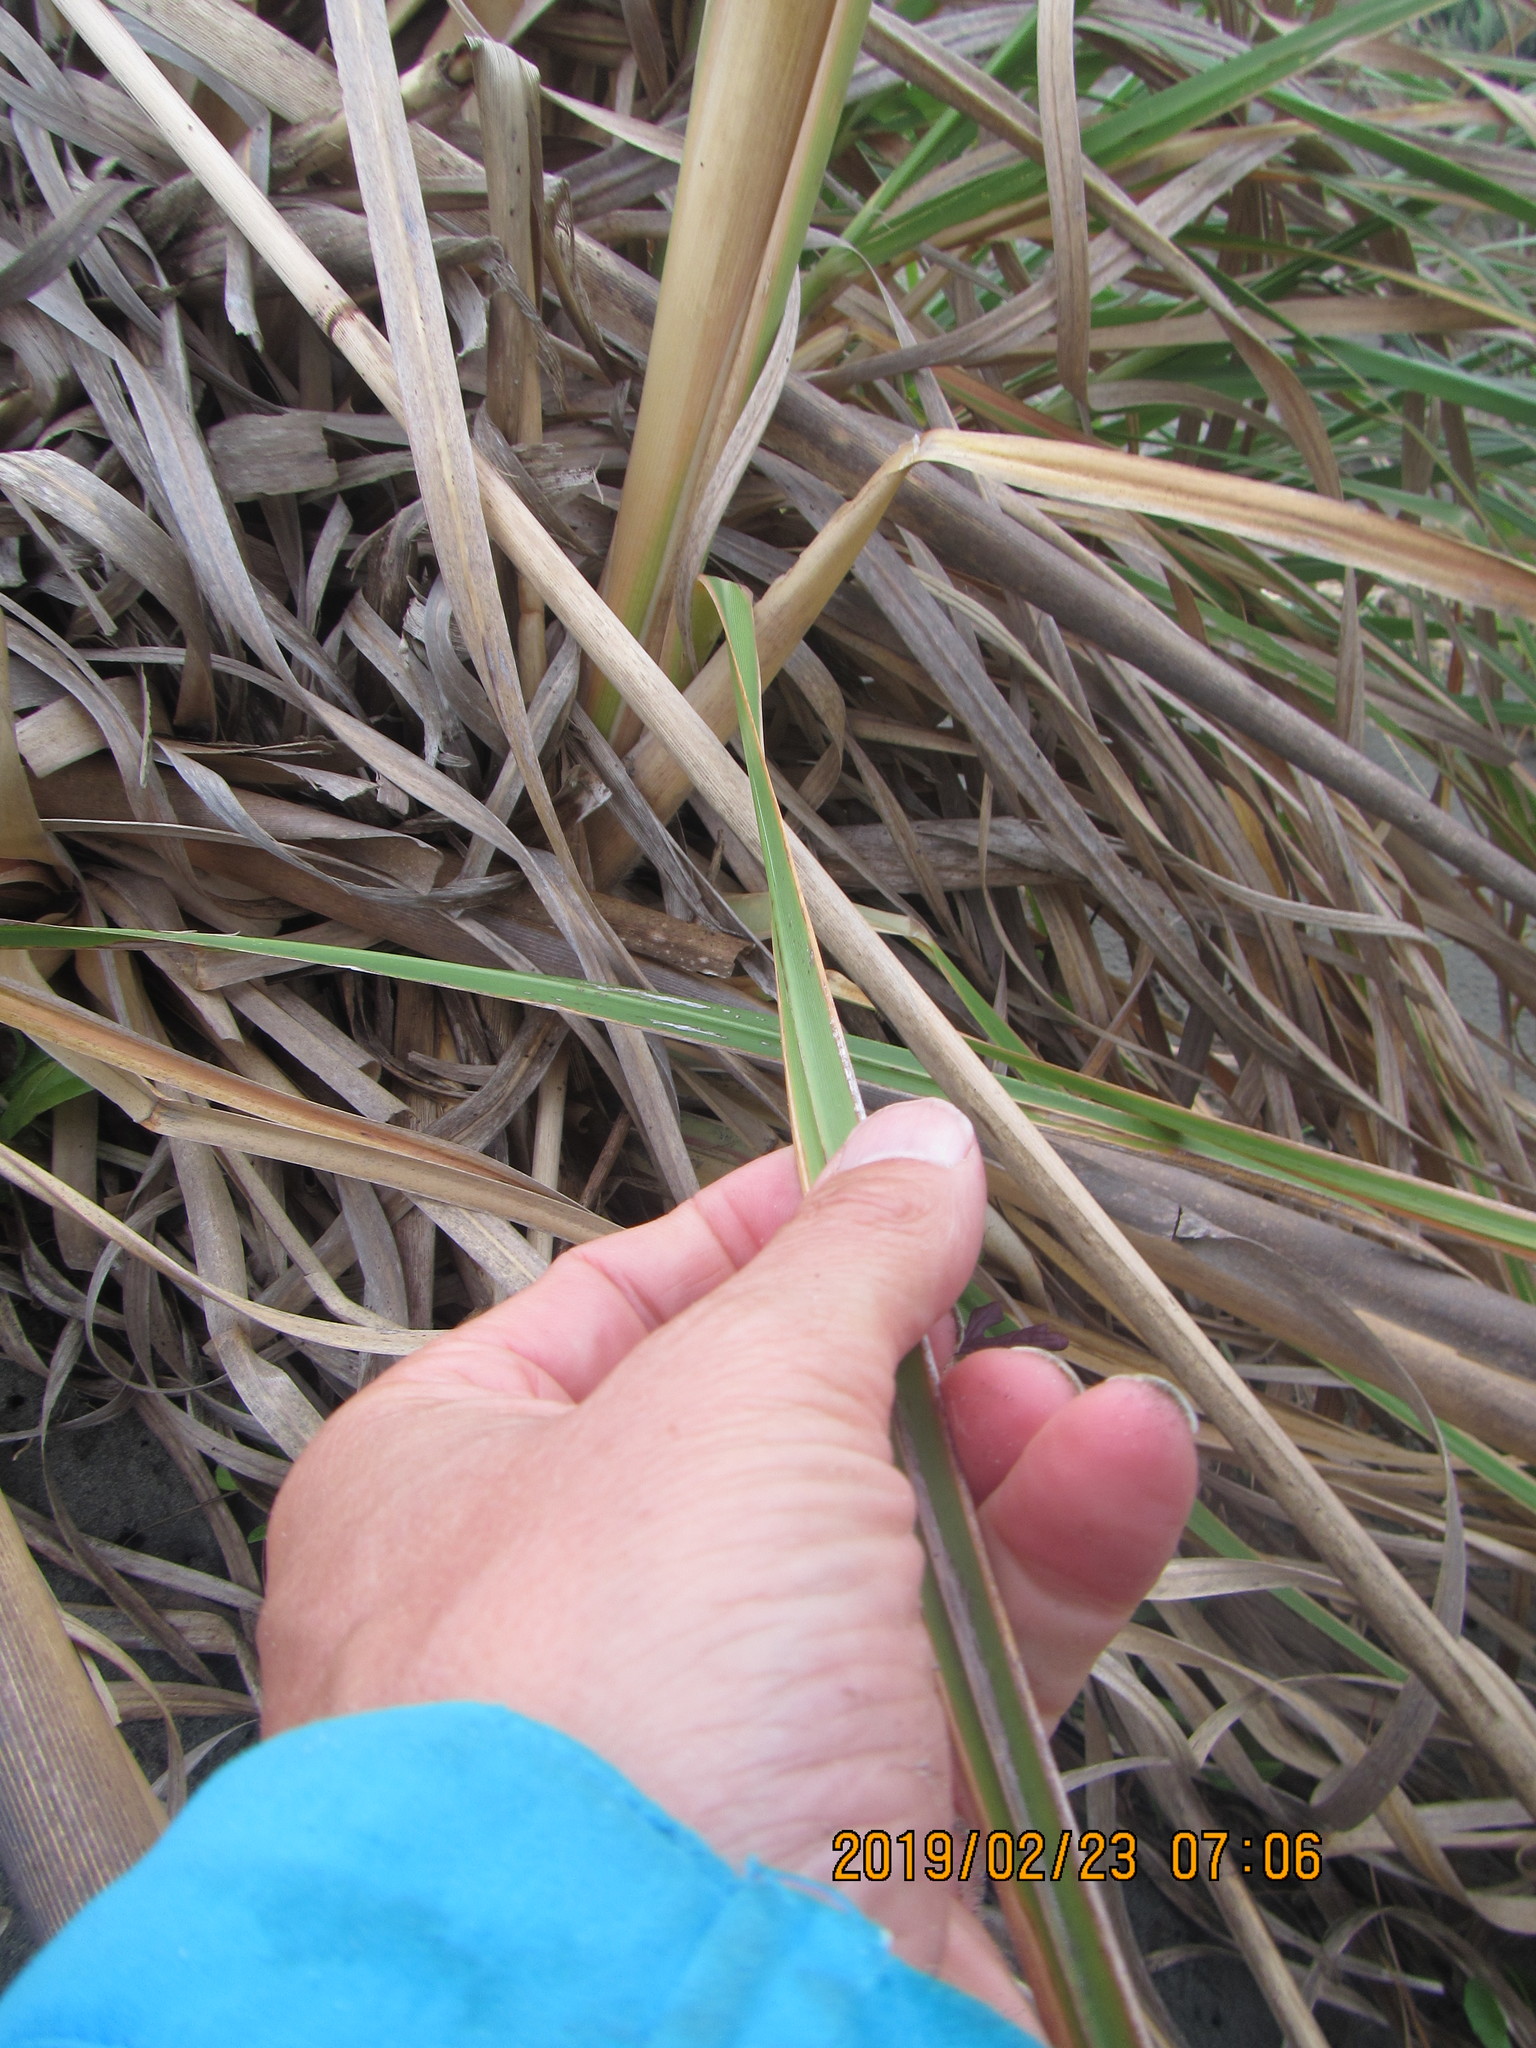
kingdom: Plantae
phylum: Tracheophyta
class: Liliopsida
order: Poales
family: Poaceae
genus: Cortaderia
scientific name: Cortaderia jubata
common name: Purple pampas grass
